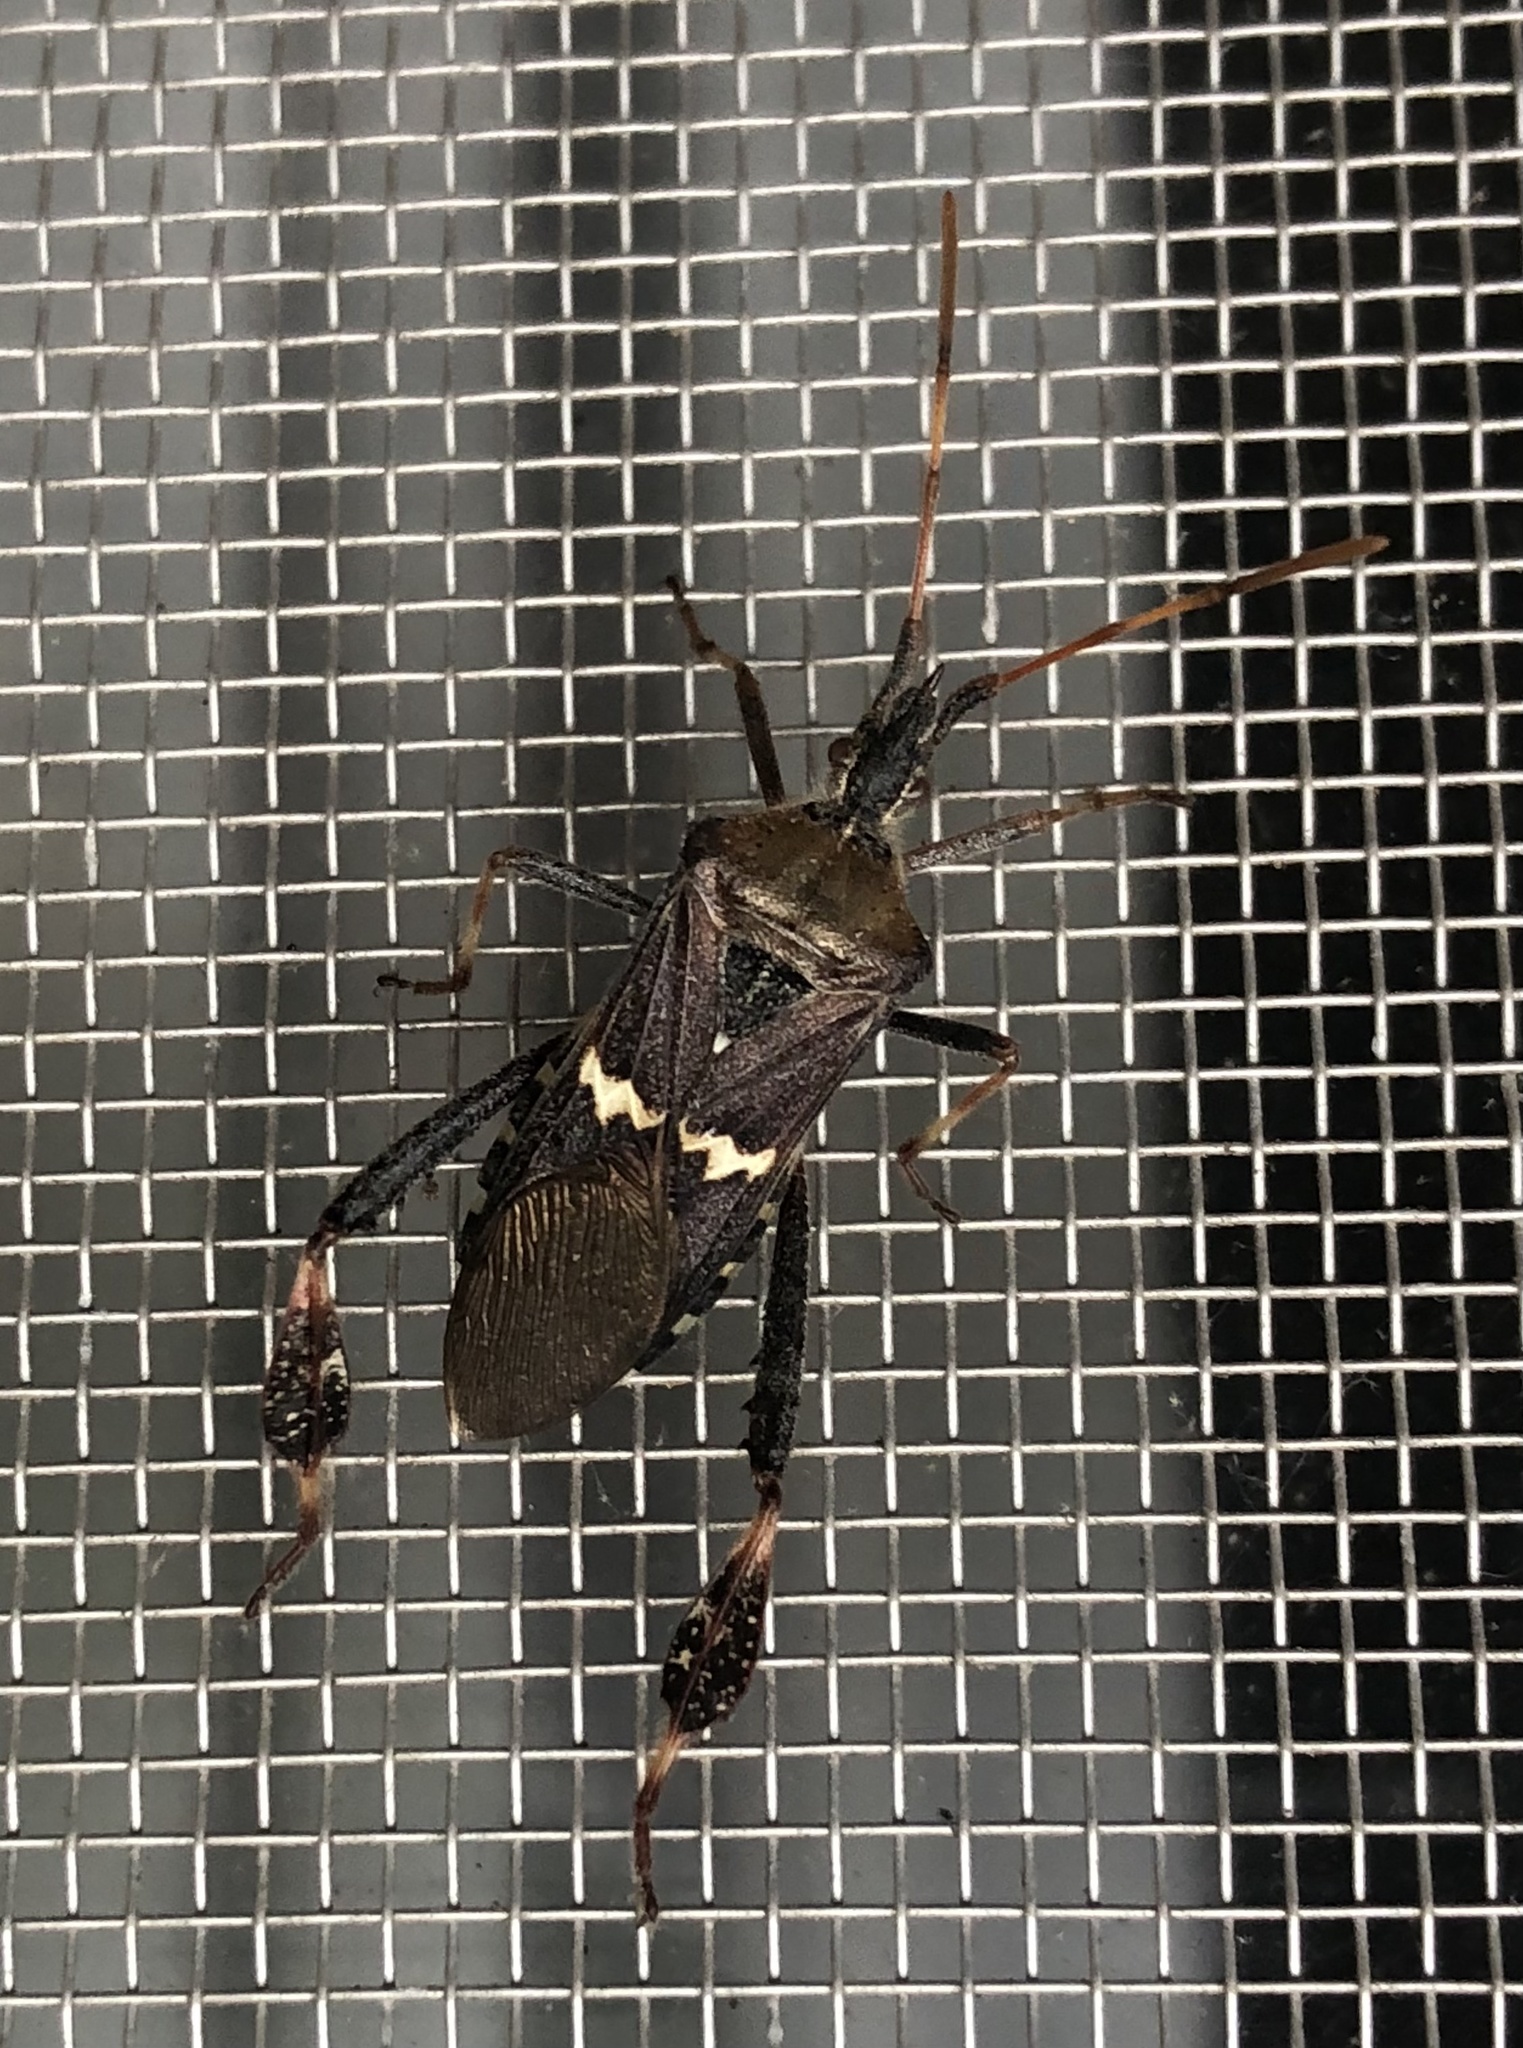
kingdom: Animalia
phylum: Arthropoda
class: Insecta
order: Hemiptera
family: Coreidae
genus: Leptoglossus
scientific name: Leptoglossus clypealis
